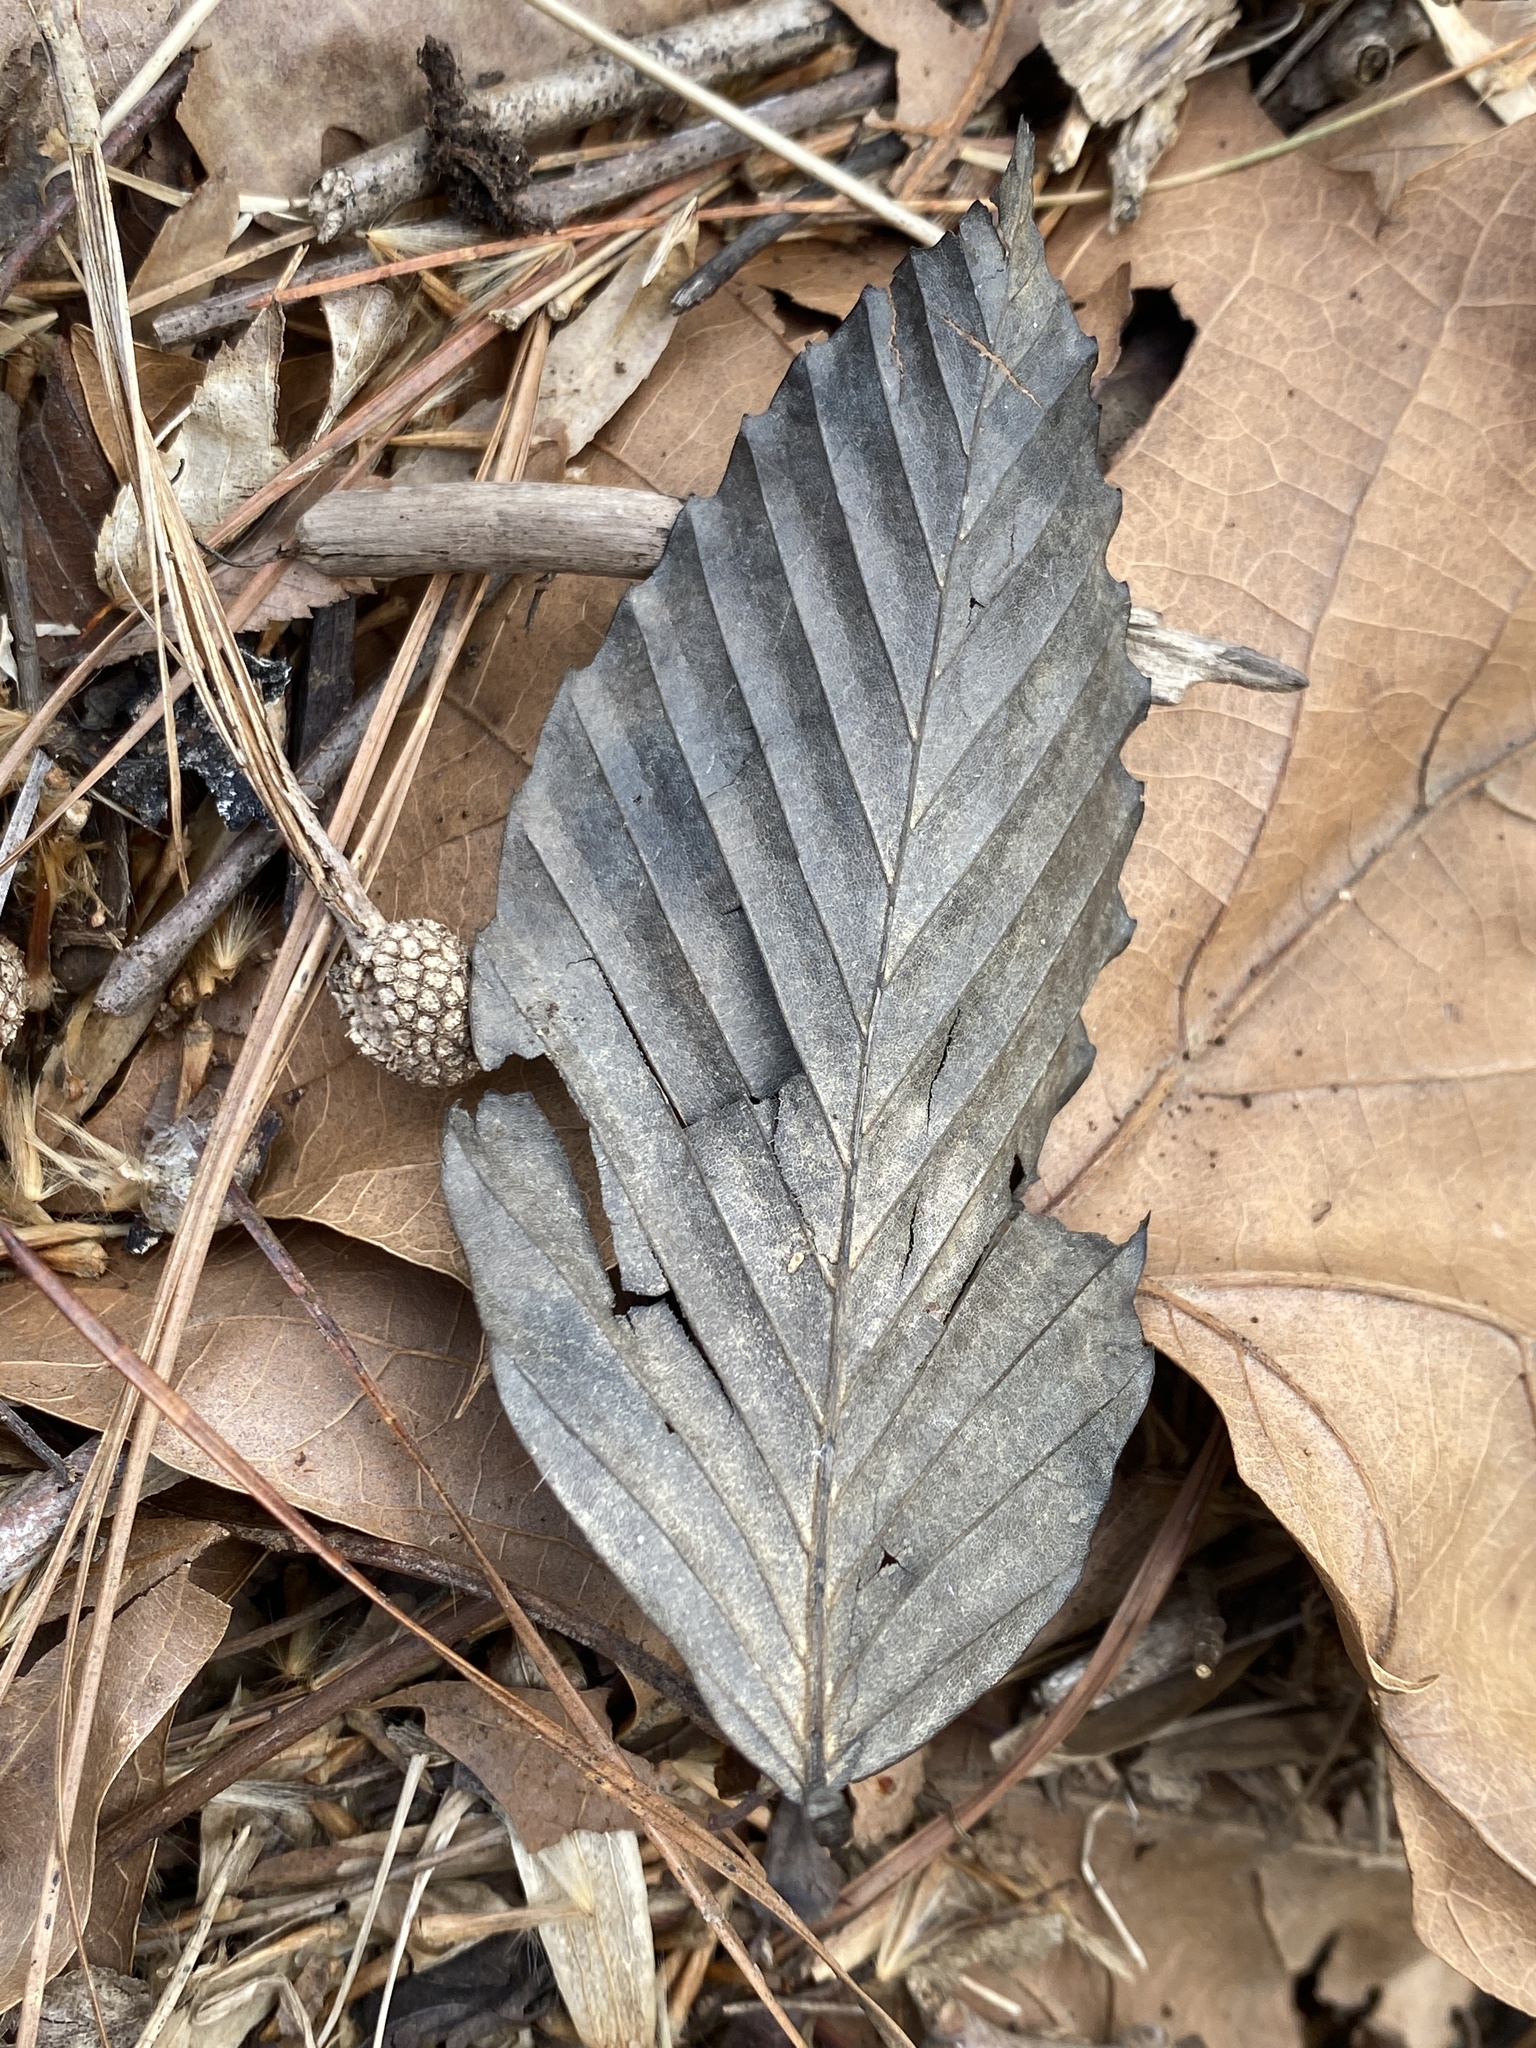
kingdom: Plantae
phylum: Tracheophyta
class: Magnoliopsida
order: Fagales
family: Fagaceae
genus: Fagus
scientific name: Fagus grandifolia
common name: American beech
